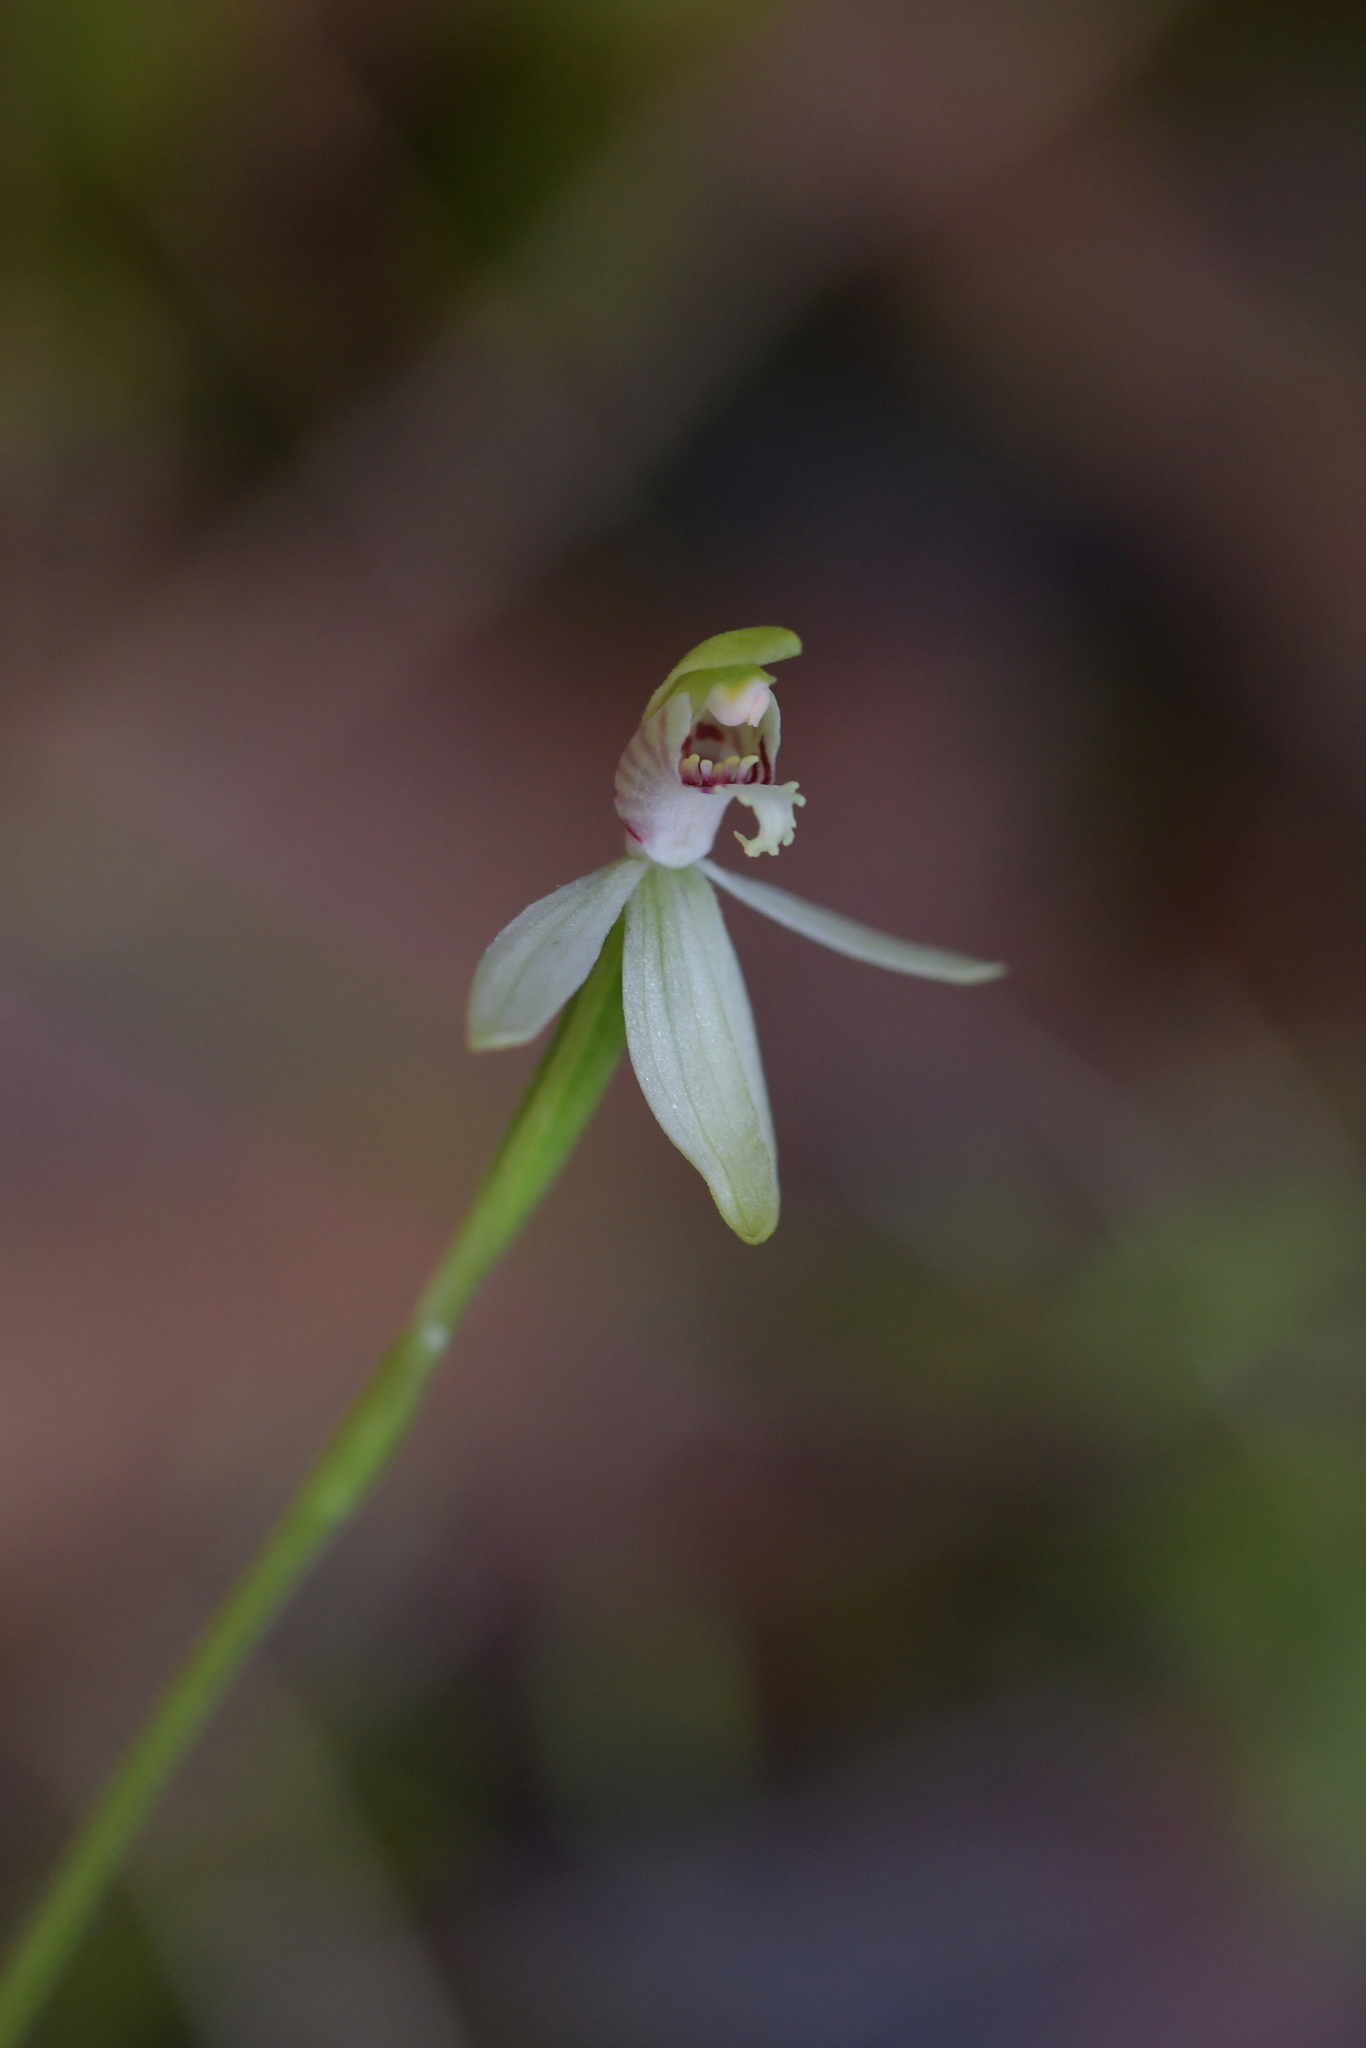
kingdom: Plantae
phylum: Tracheophyta
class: Liliopsida
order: Asparagales
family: Orchidaceae
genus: Caladenia
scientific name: Caladenia chlorostyla
